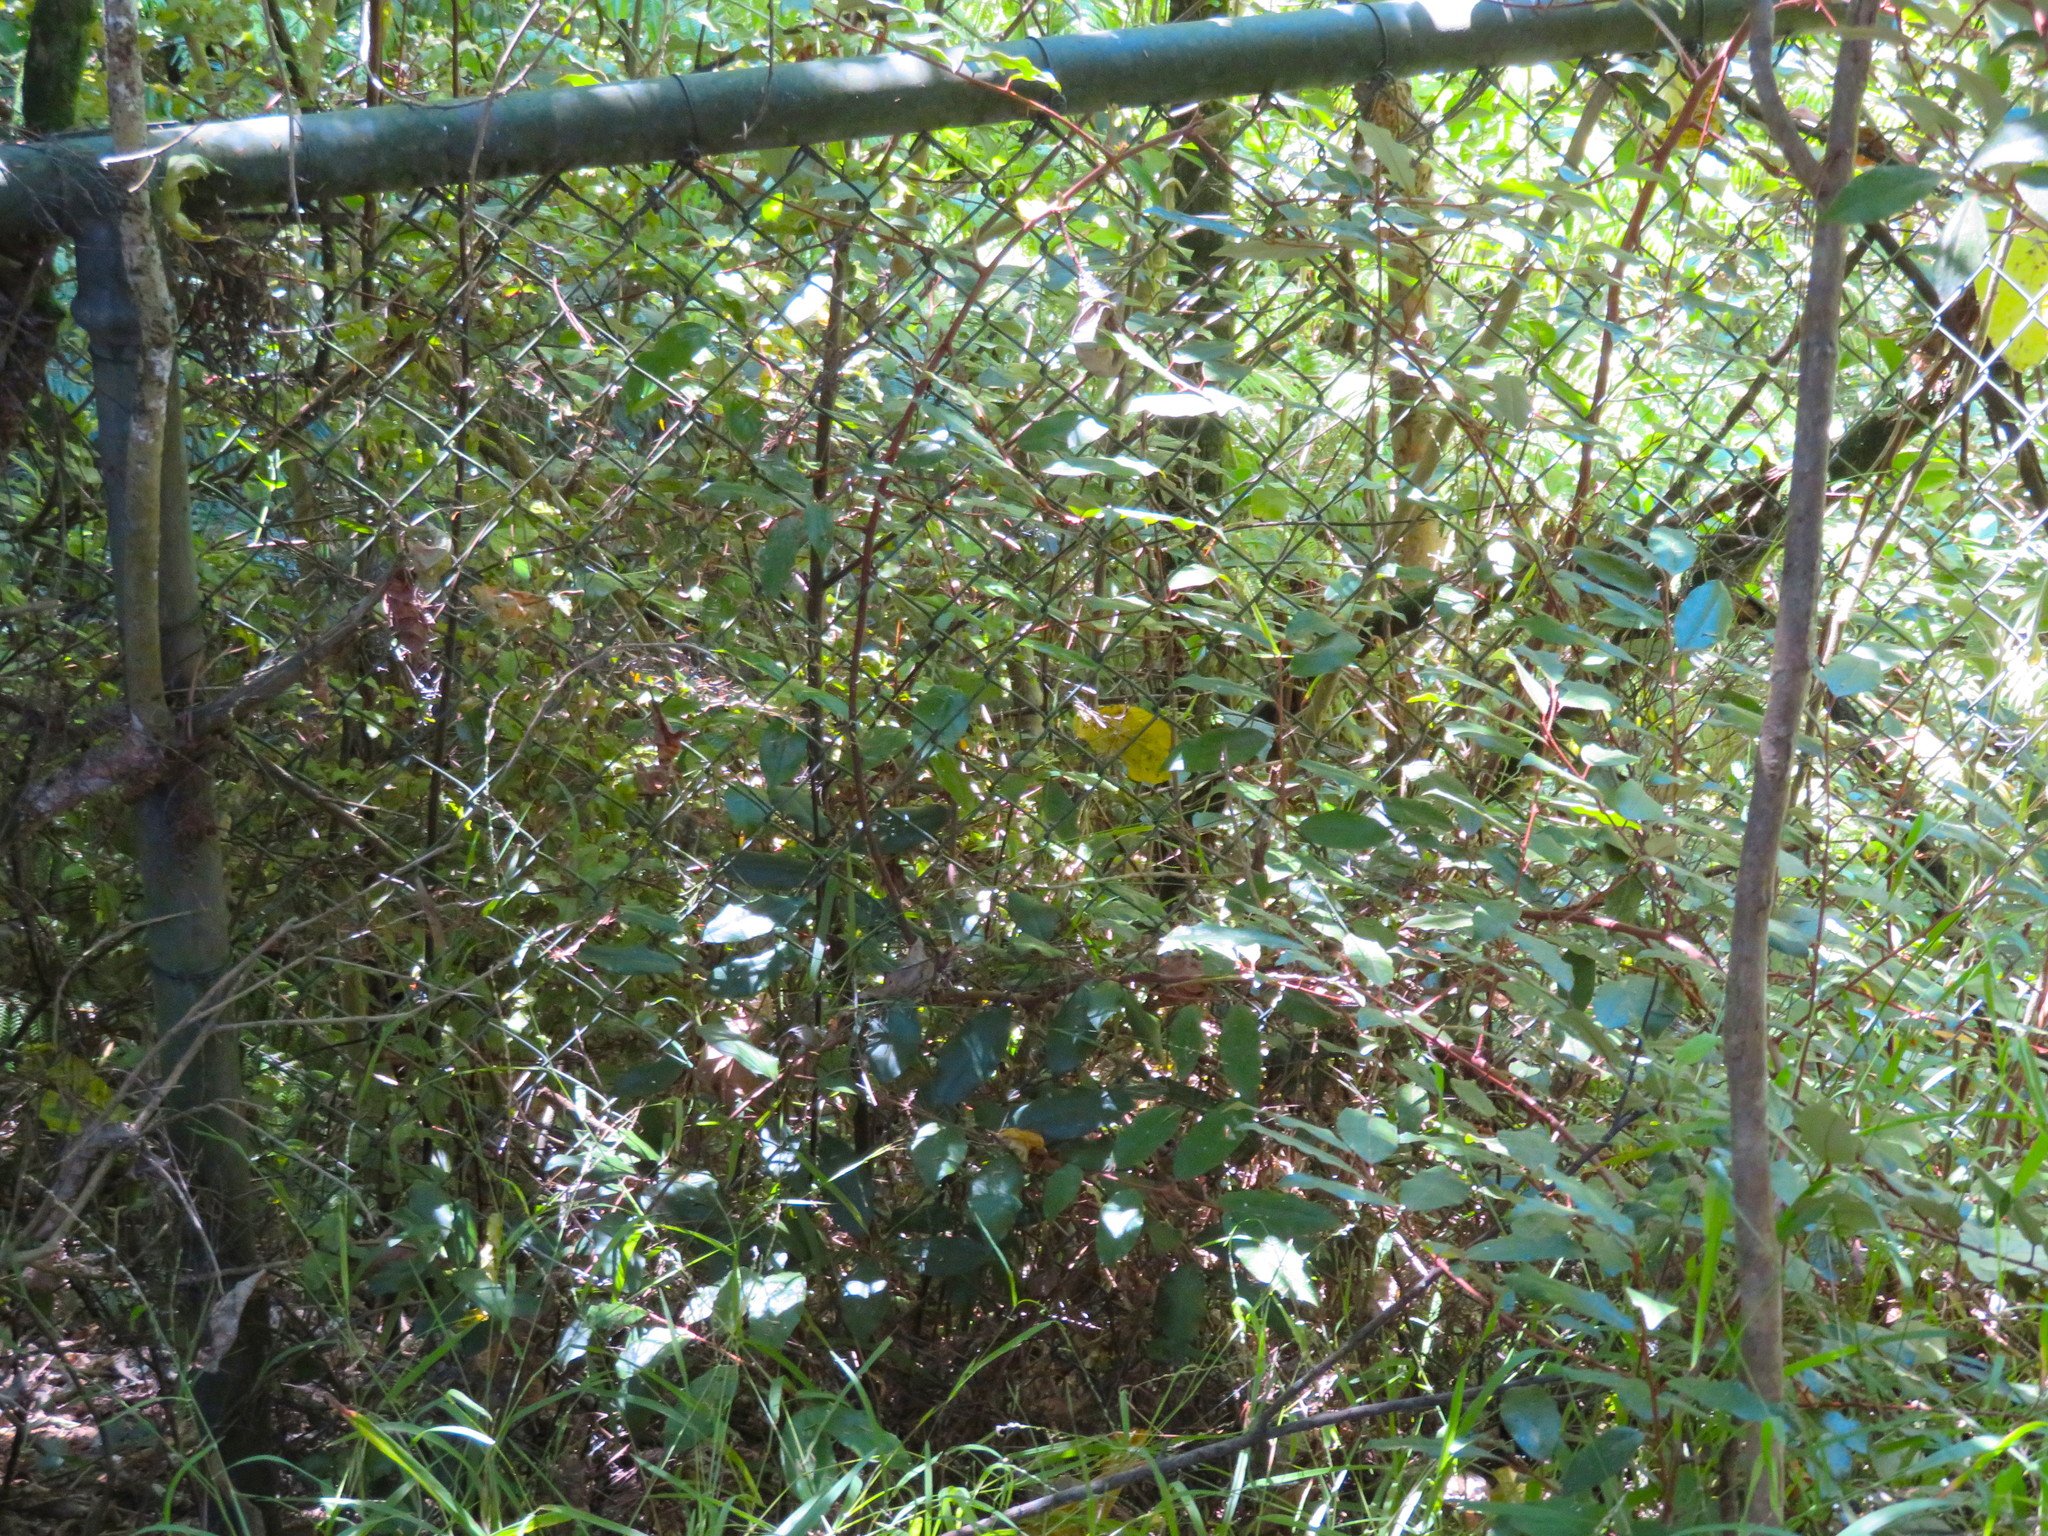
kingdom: Plantae
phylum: Tracheophyta
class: Magnoliopsida
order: Rosales
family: Elaeagnaceae
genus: Elaeagnus
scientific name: Elaeagnus reflexa
